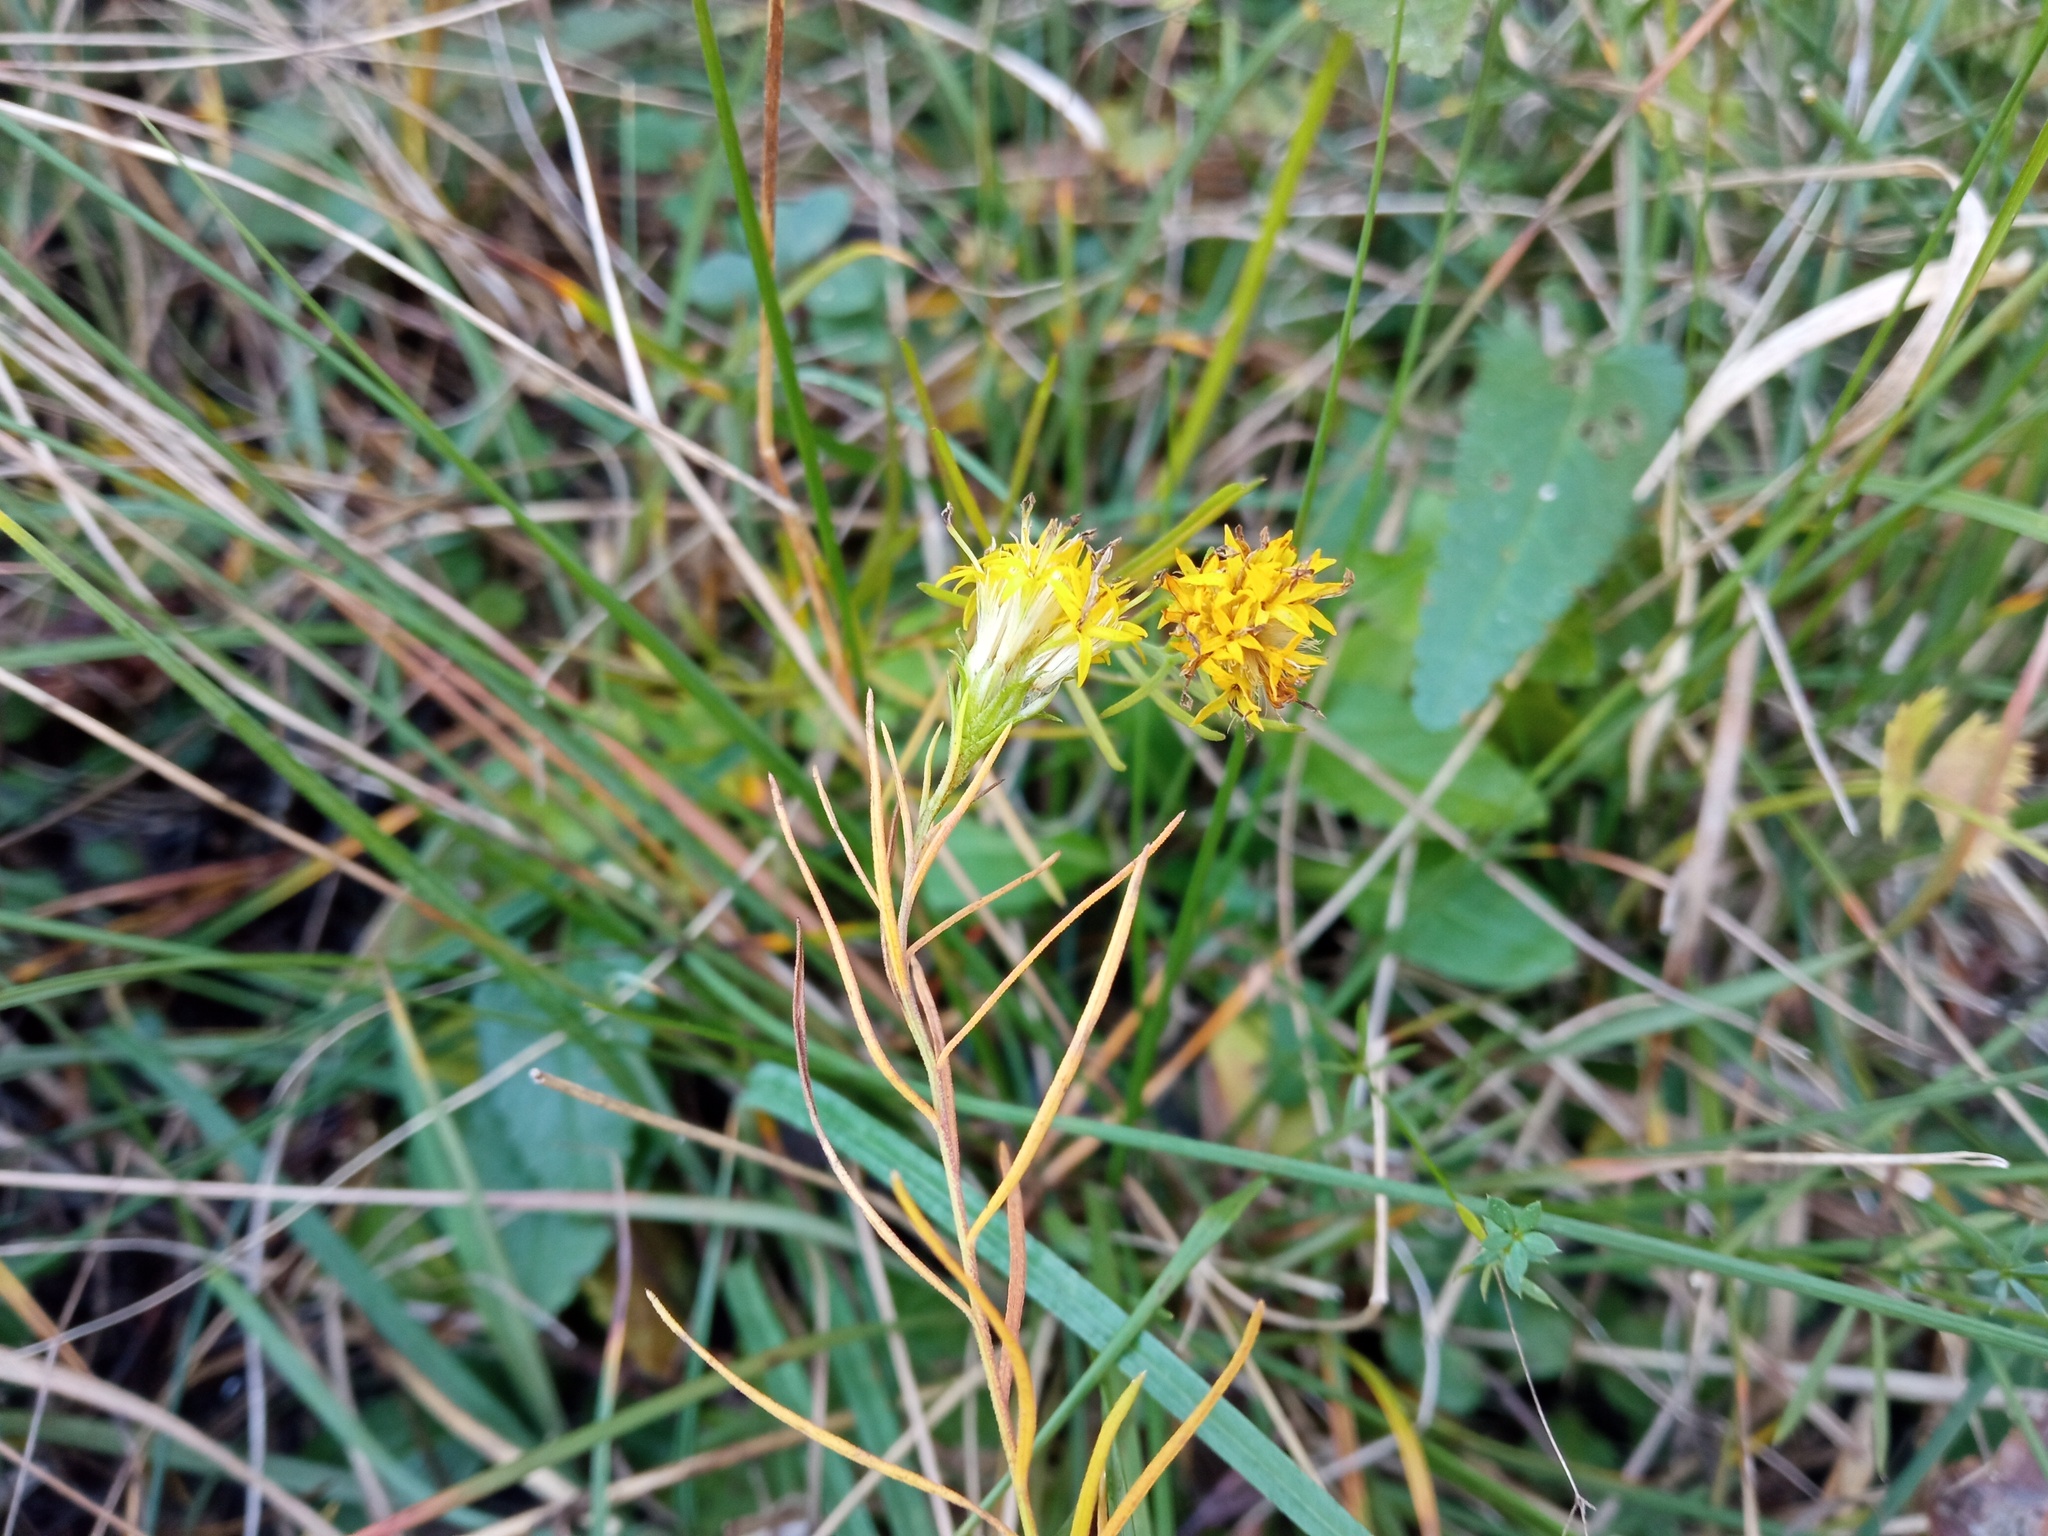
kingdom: Plantae
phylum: Tracheophyta
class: Magnoliopsida
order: Asterales
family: Asteraceae
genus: Galatella
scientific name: Galatella linosyris
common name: Goldilocks aster
